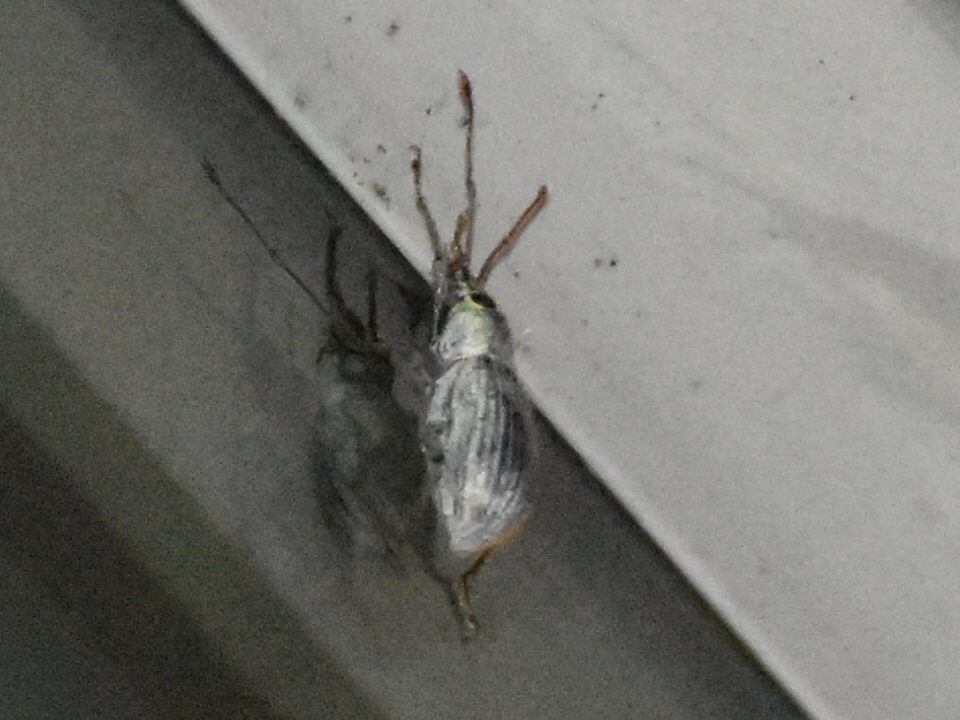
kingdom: Animalia
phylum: Arthropoda
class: Insecta
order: Coleoptera
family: Curculionidae
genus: Cyrtepistomus
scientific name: Cyrtepistomus castaneus
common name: Weevil
